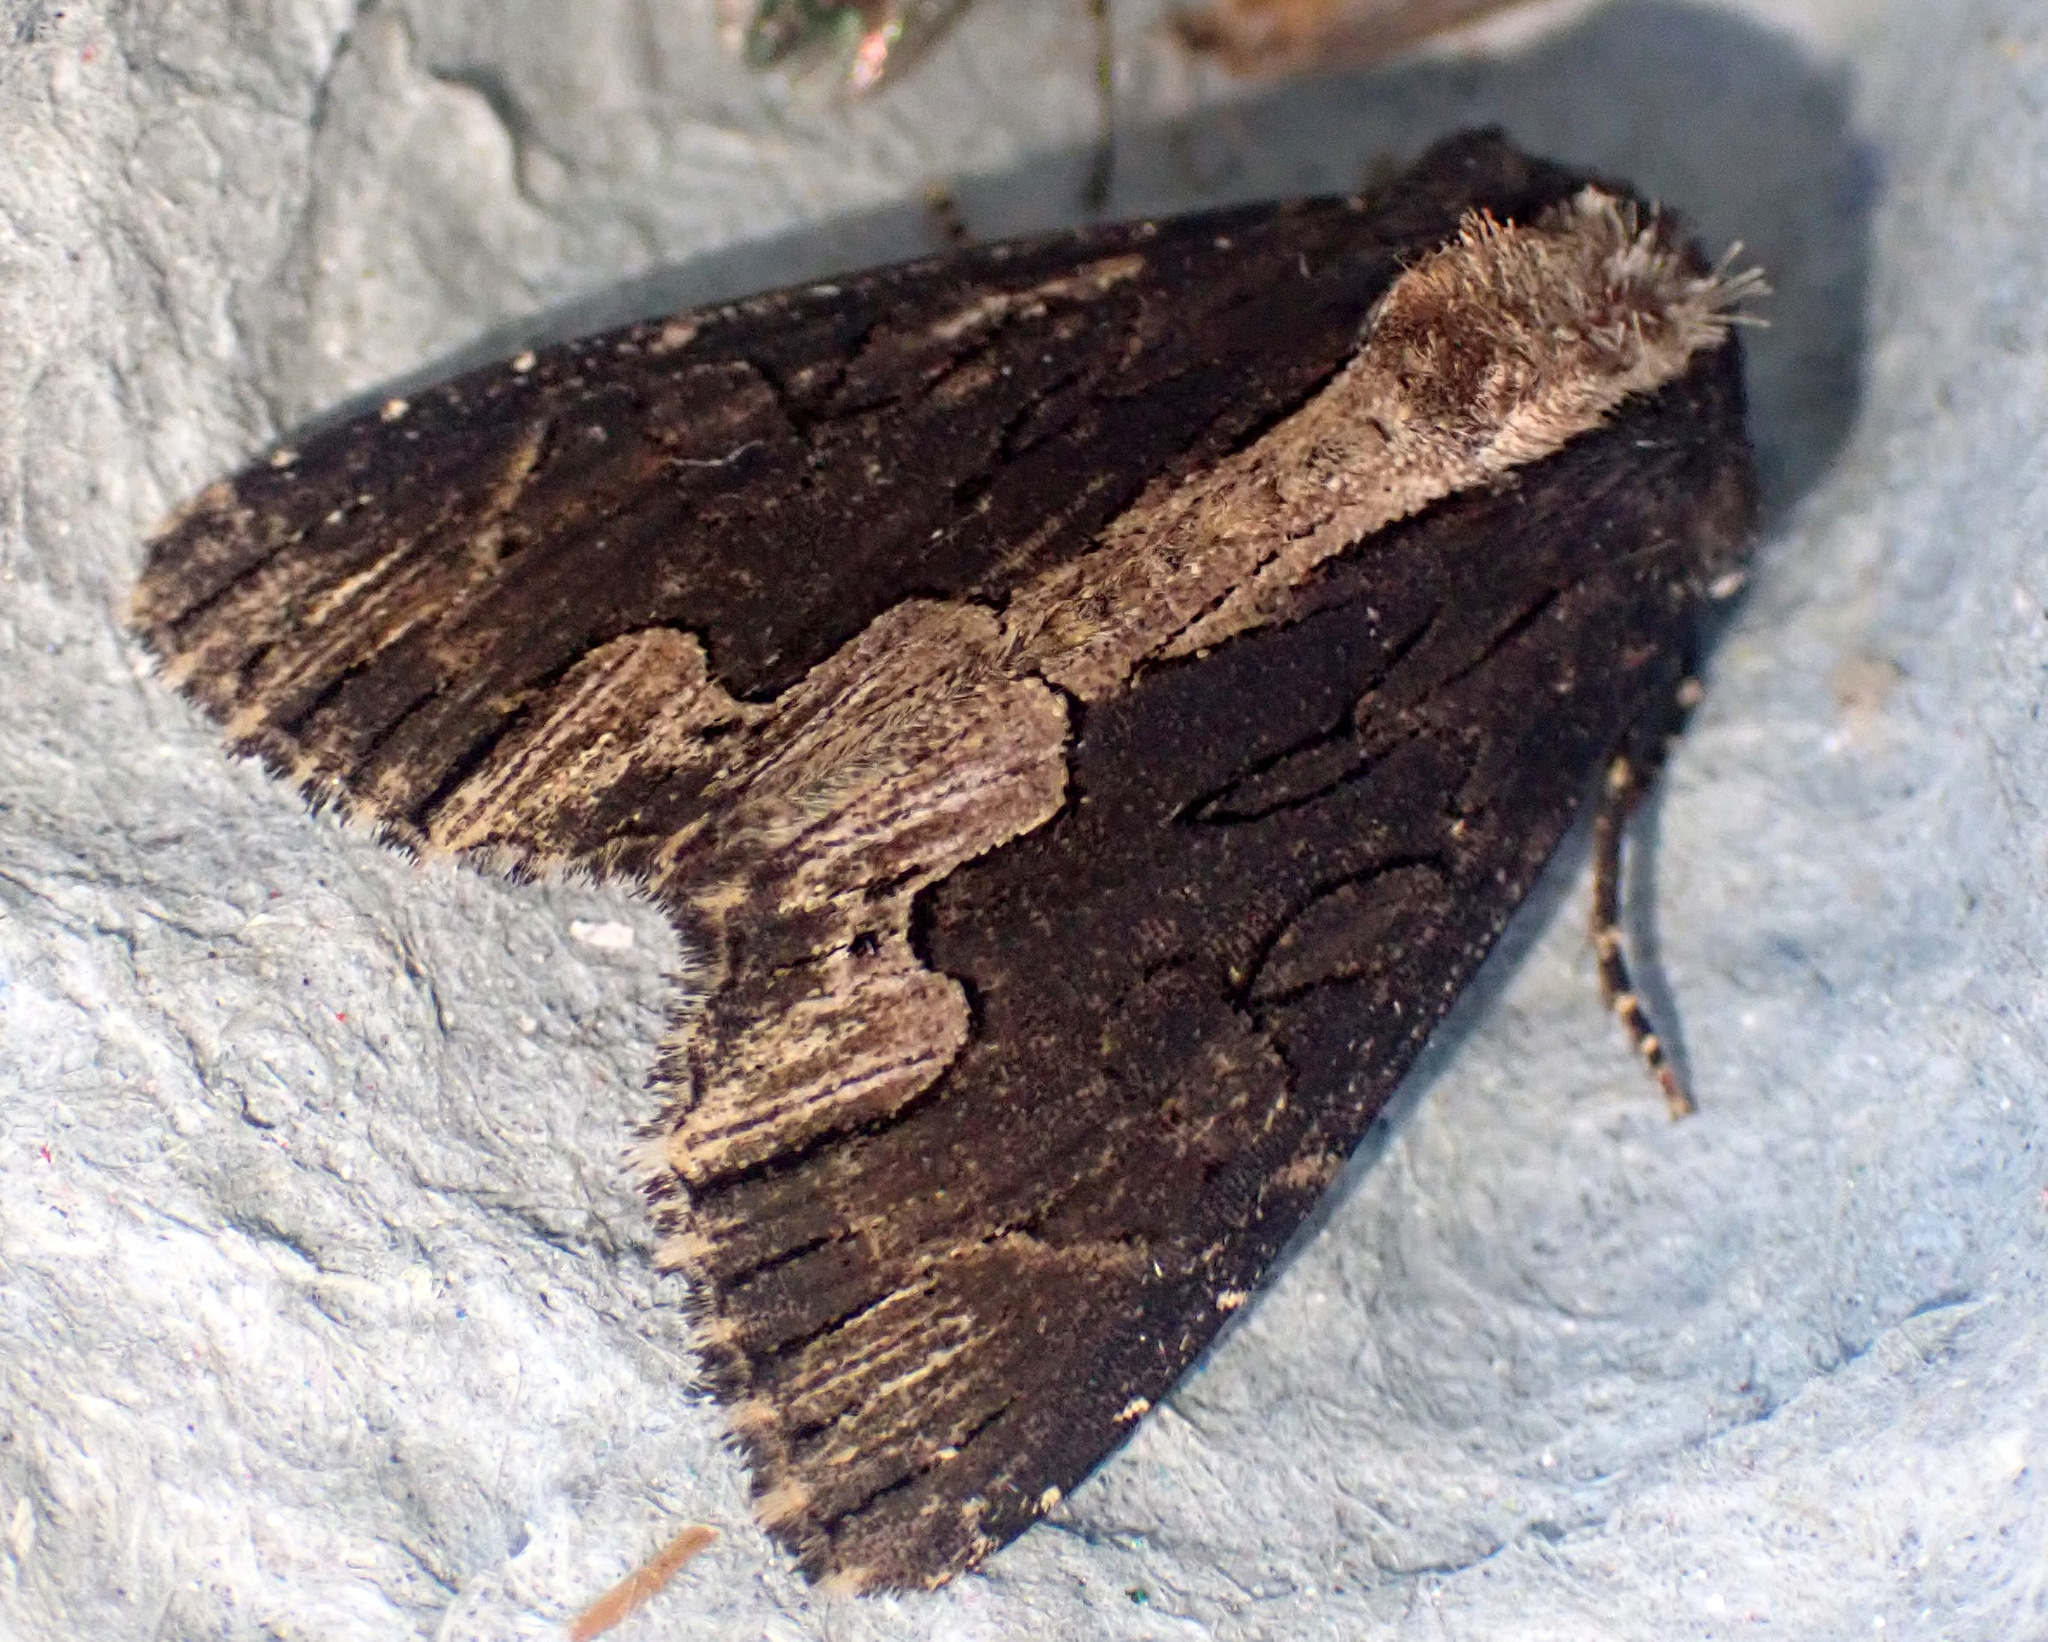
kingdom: Animalia
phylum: Arthropoda
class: Insecta
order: Lepidoptera
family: Noctuidae
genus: Dypterygia
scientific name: Dypterygia scabriuscula
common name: Bird's wing
